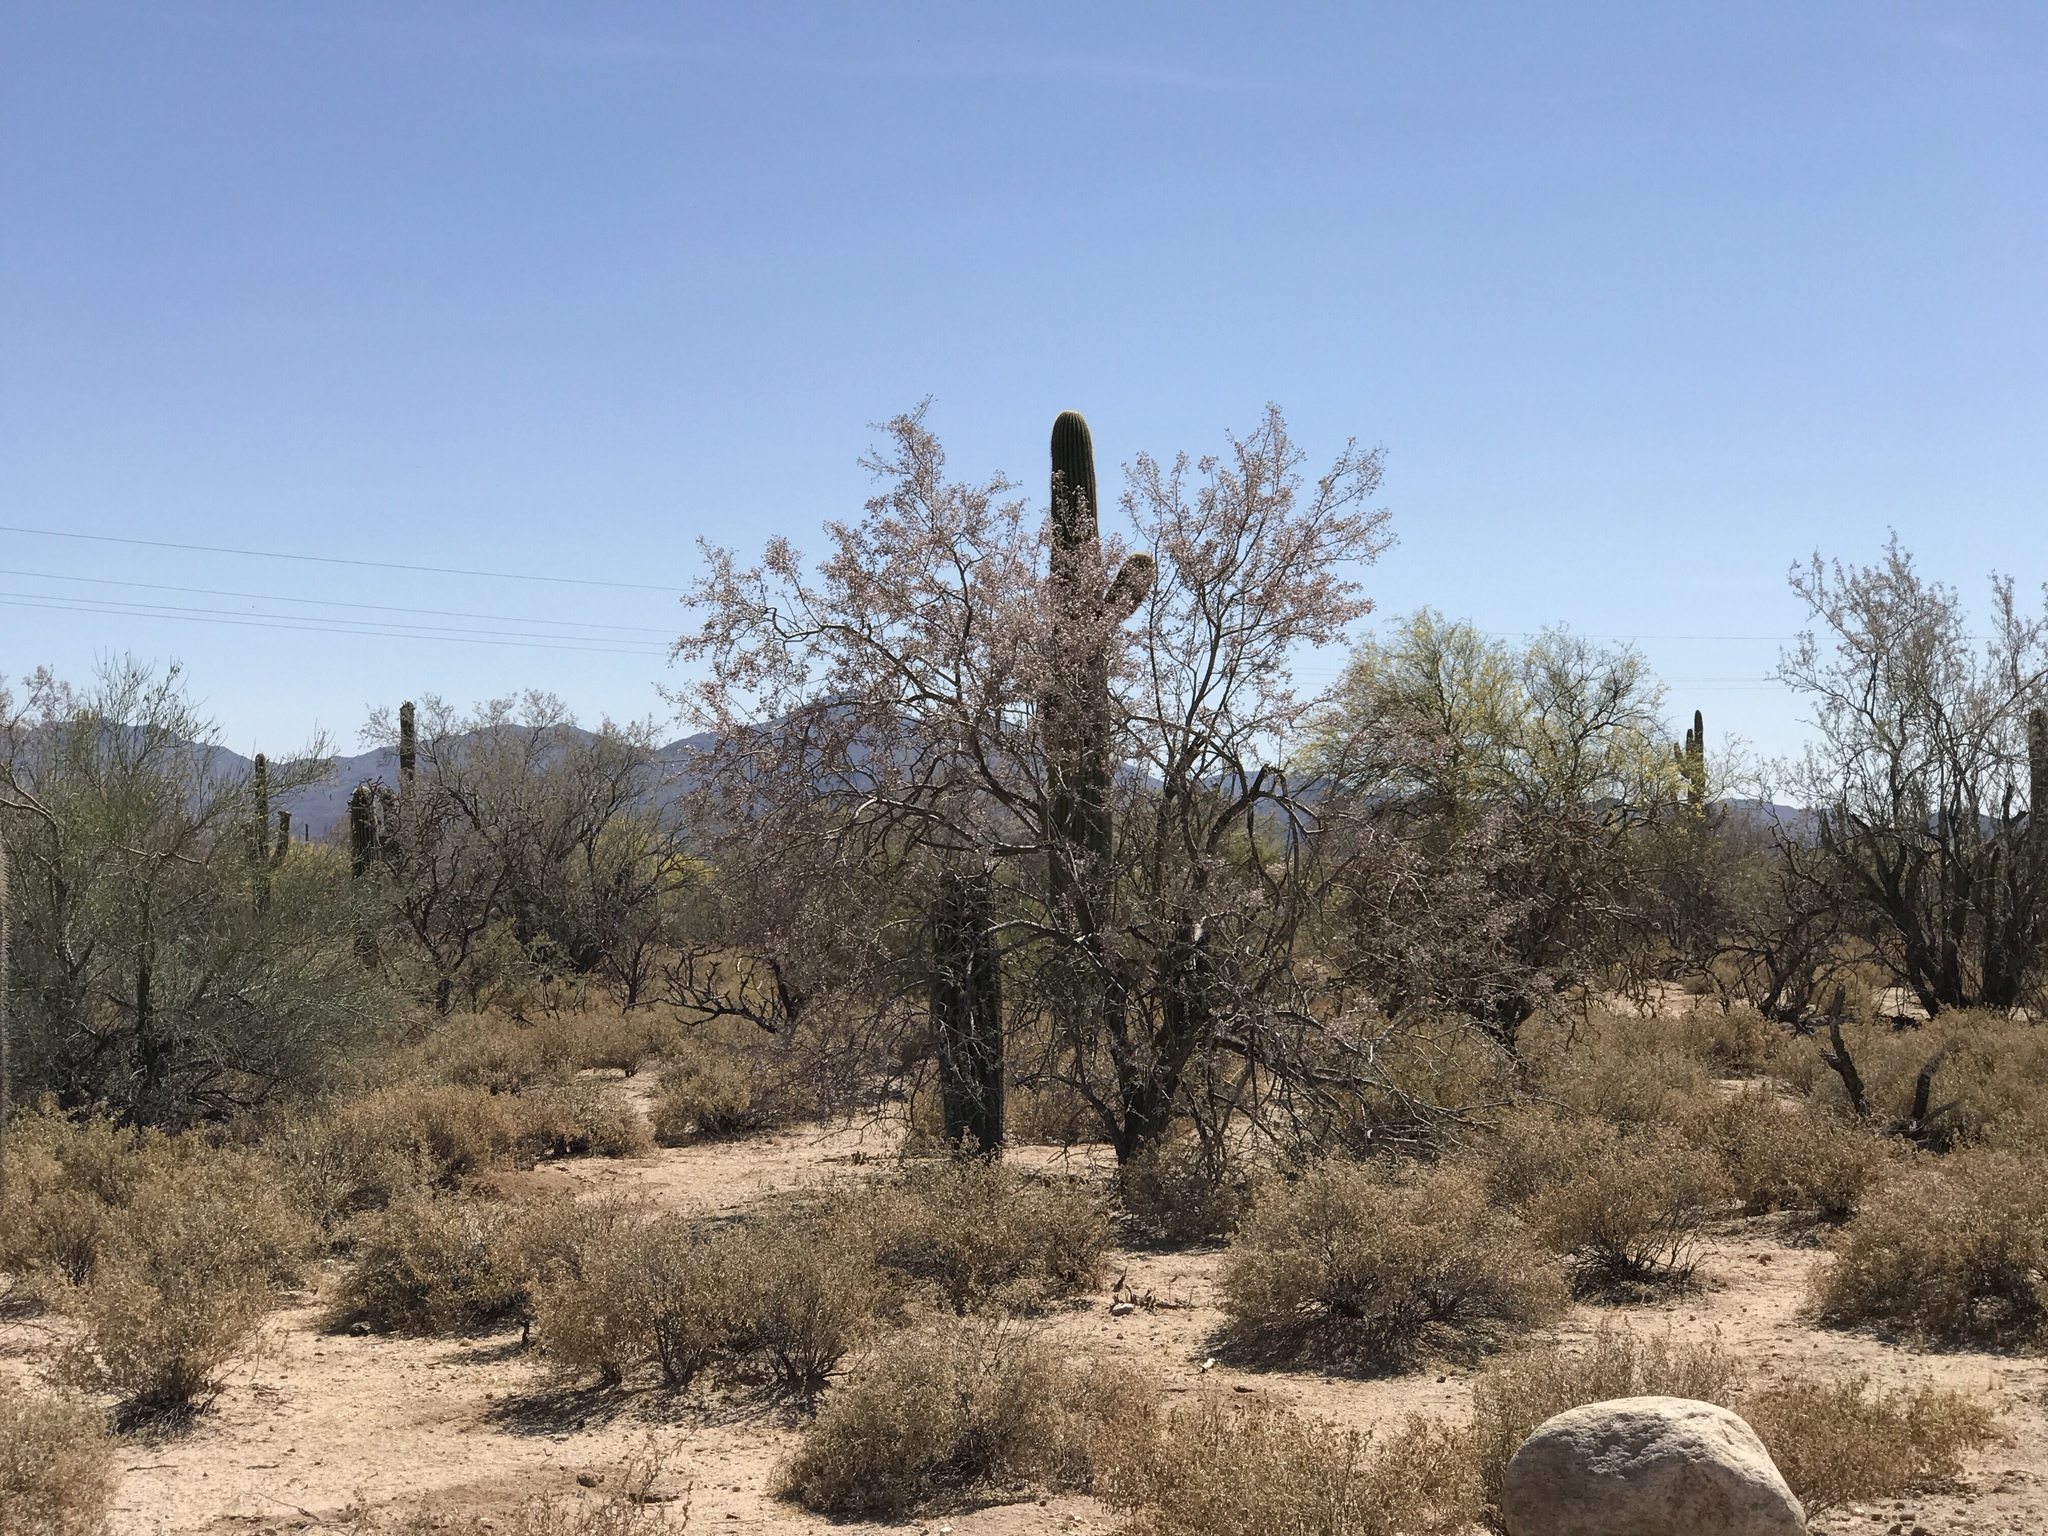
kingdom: Plantae
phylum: Tracheophyta
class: Magnoliopsida
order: Fabales
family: Fabaceae
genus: Olneya
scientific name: Olneya tesota
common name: Desert ironwood
